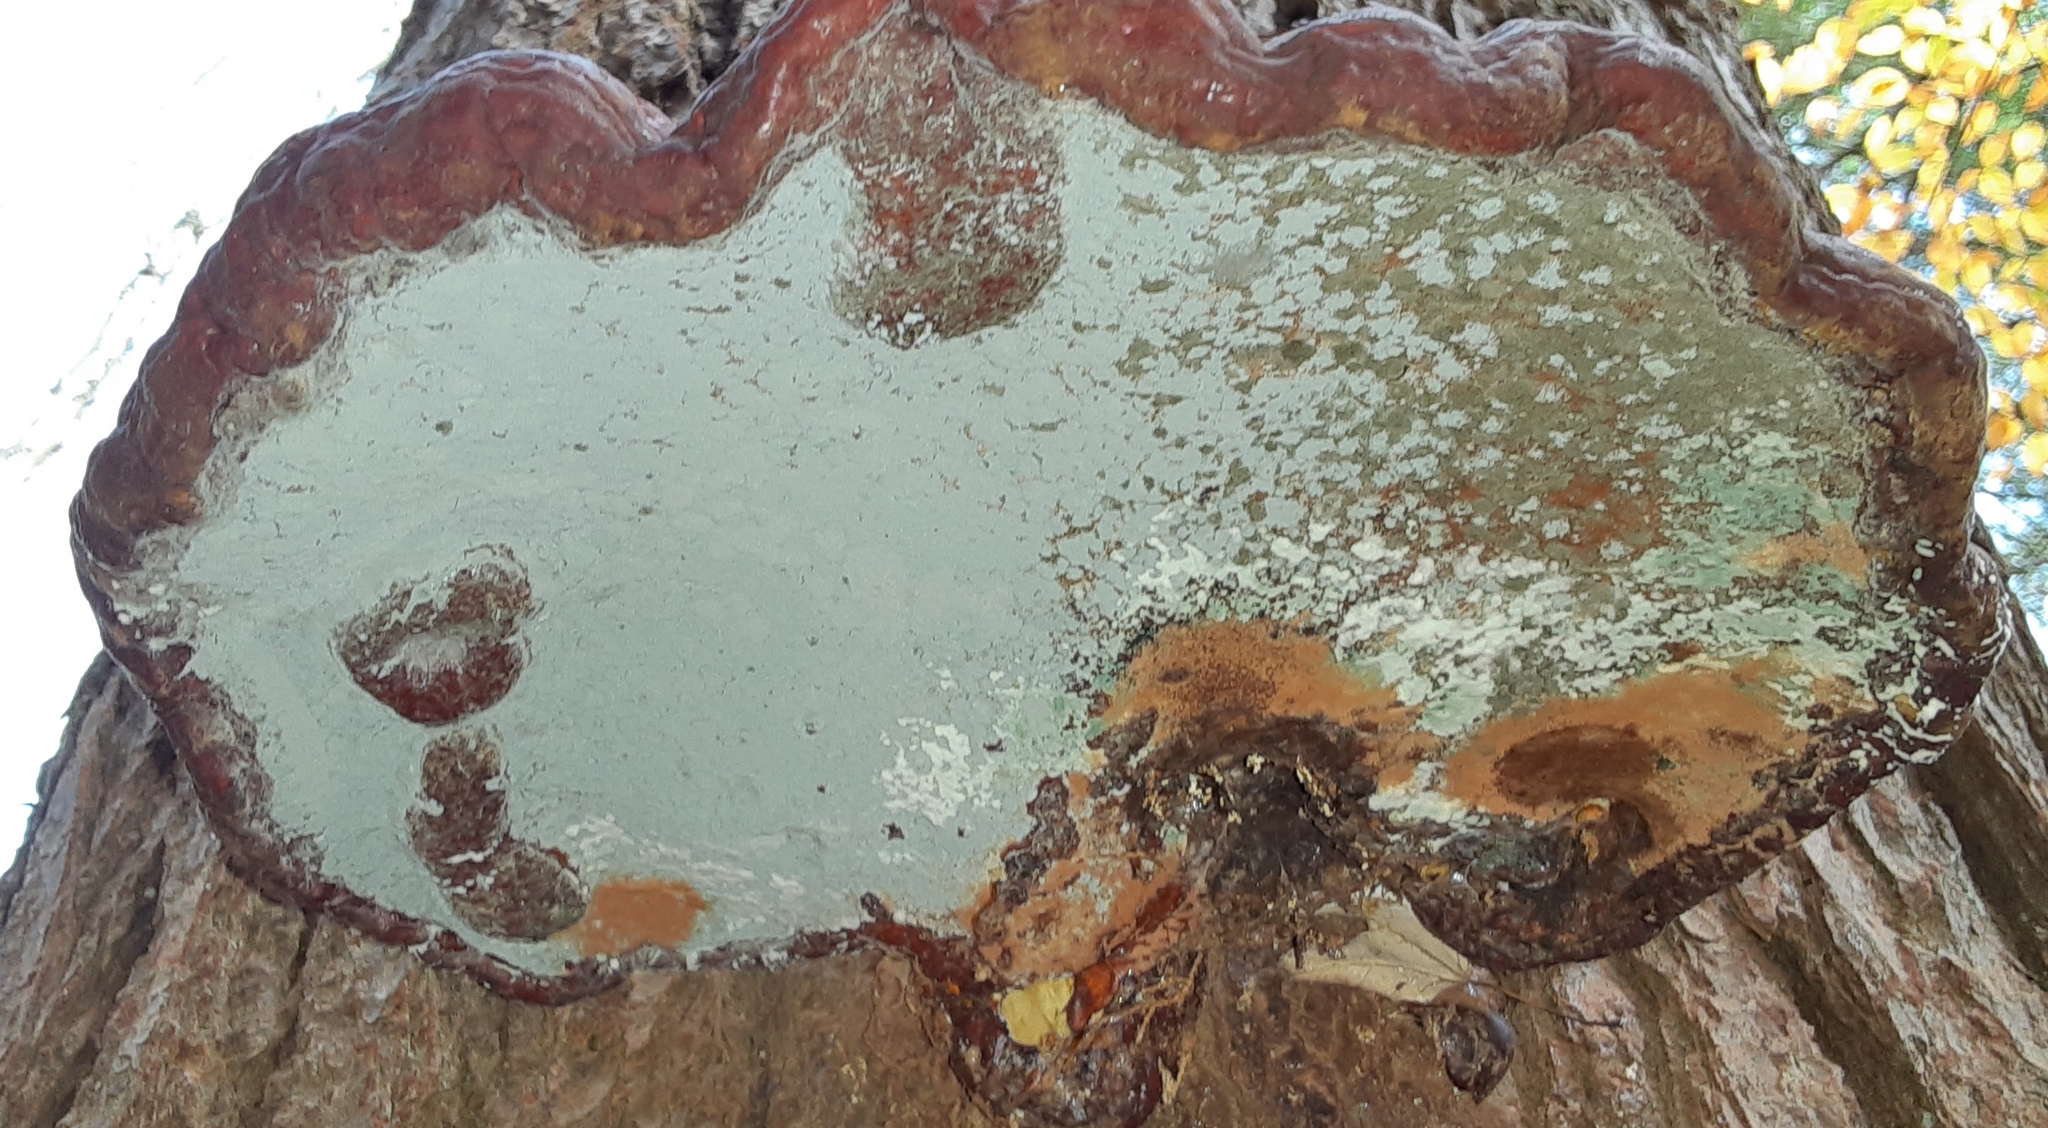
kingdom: Fungi
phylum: Basidiomycota
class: Agaricomycetes
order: Polyporales
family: Polyporaceae
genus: Ganoderma
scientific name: Ganoderma tsugae
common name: Hemlock varnish shelf
